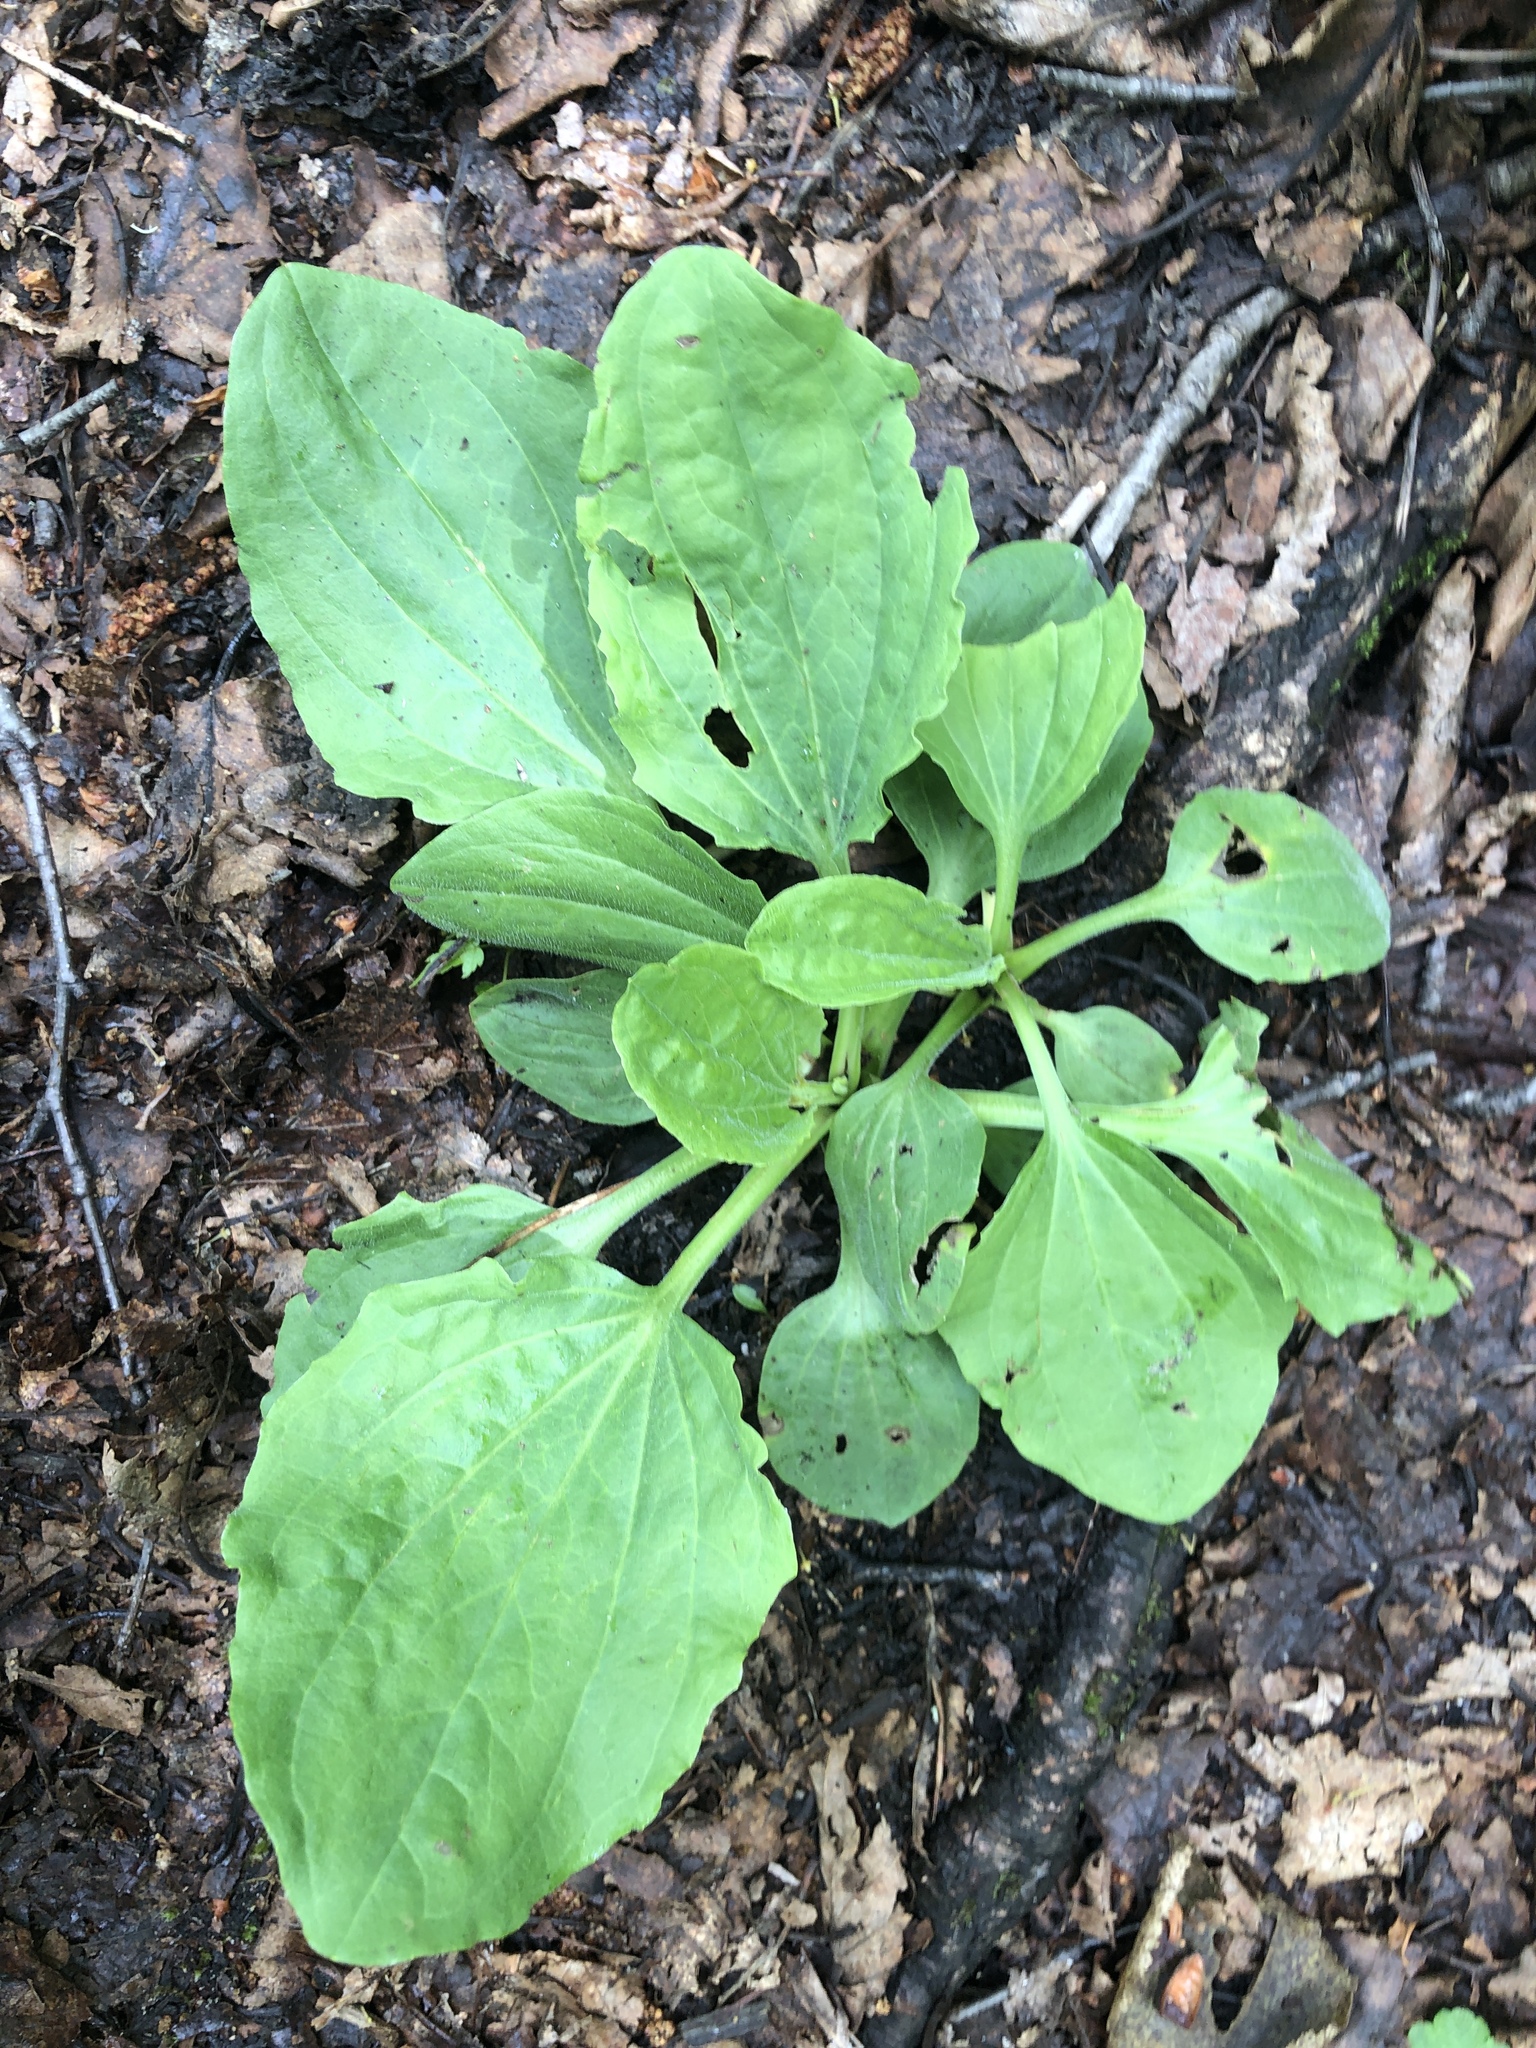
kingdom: Plantae
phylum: Tracheophyta
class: Magnoliopsida
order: Lamiales
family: Plantaginaceae
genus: Plantago
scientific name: Plantago major
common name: Common plantain
